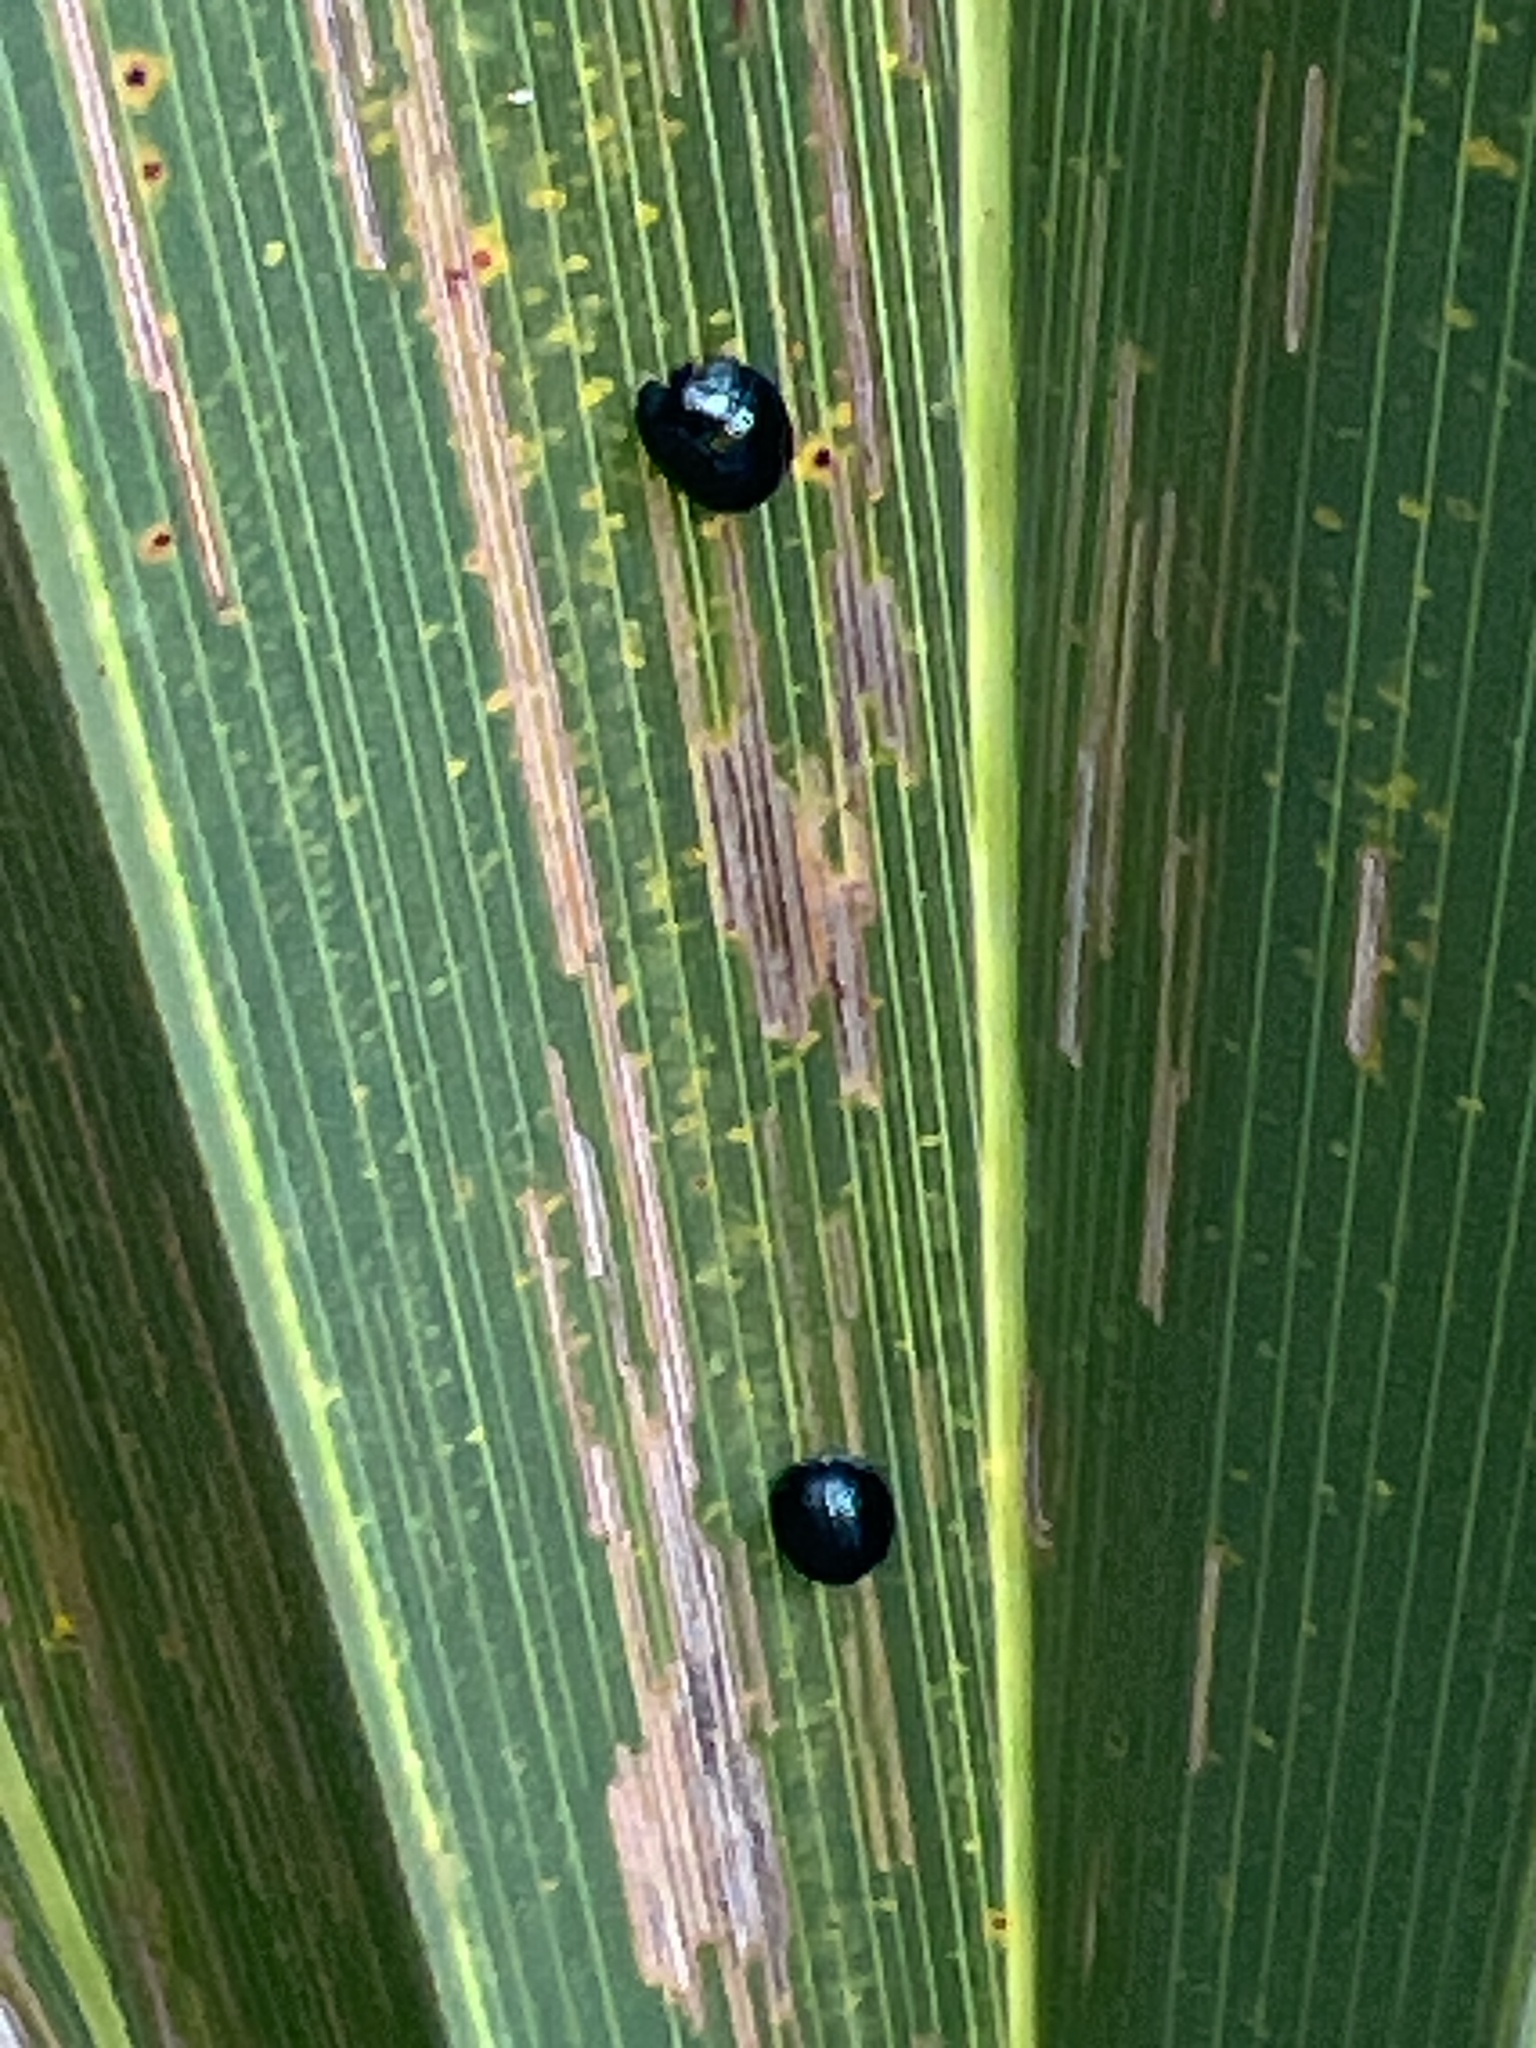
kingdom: Animalia
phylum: Arthropoda
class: Insecta
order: Coleoptera
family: Chrysomelidae
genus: Hemisphaerota
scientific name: Hemisphaerota cyanea
